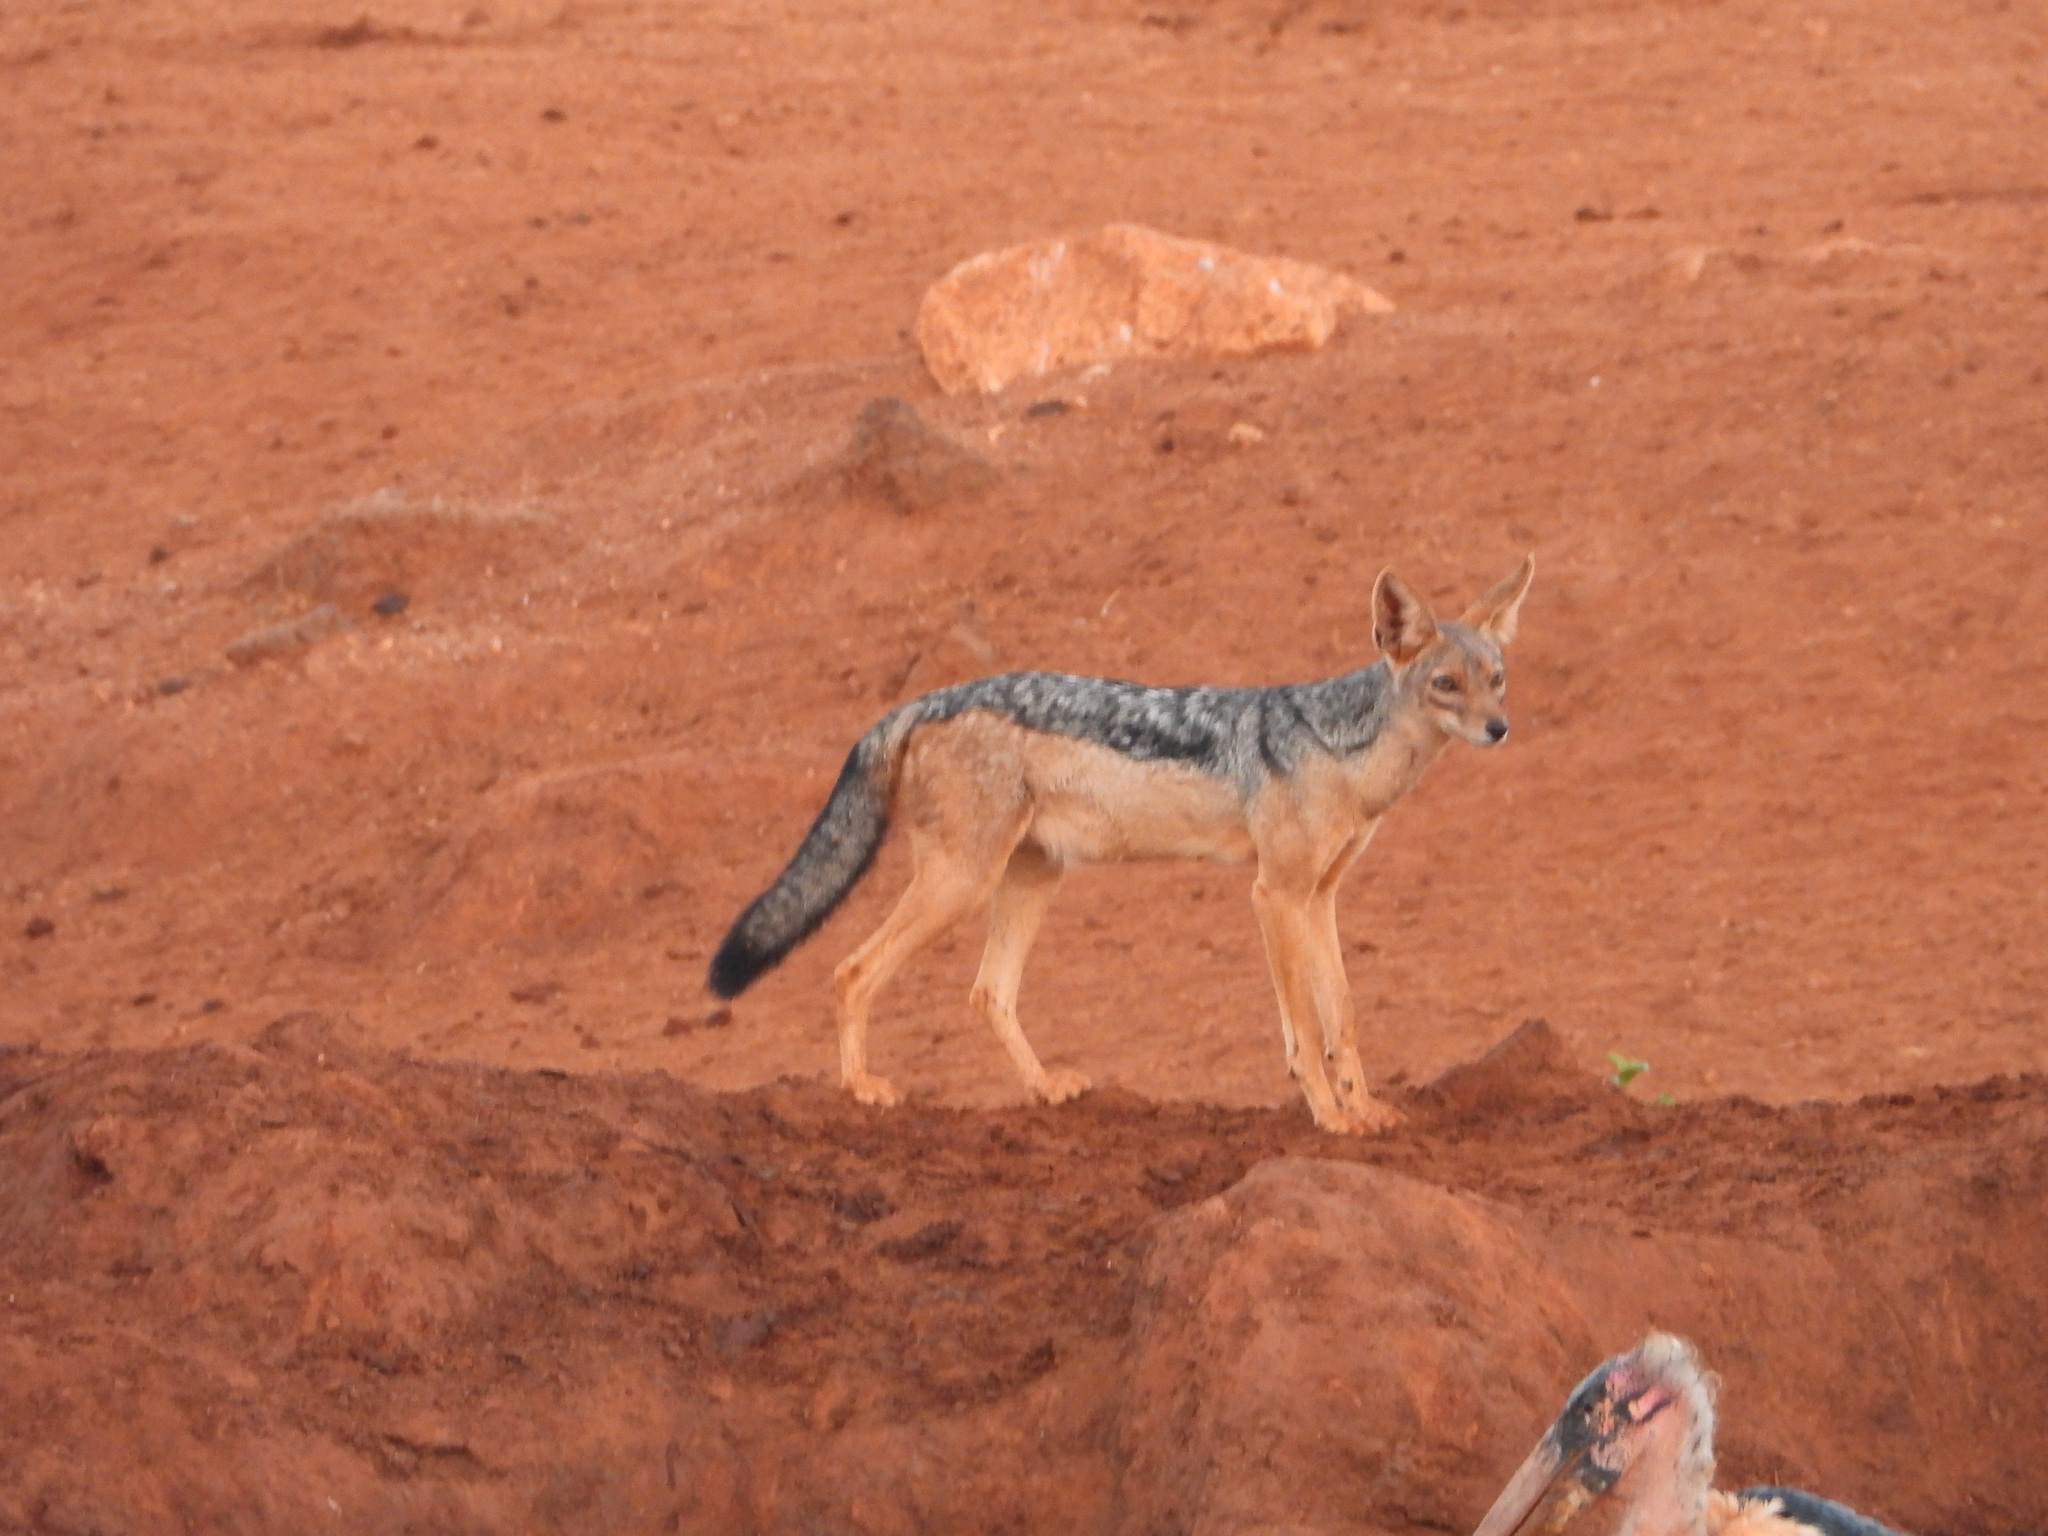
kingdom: Animalia
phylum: Chordata
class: Mammalia
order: Carnivora
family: Canidae
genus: Lupulella
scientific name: Lupulella
